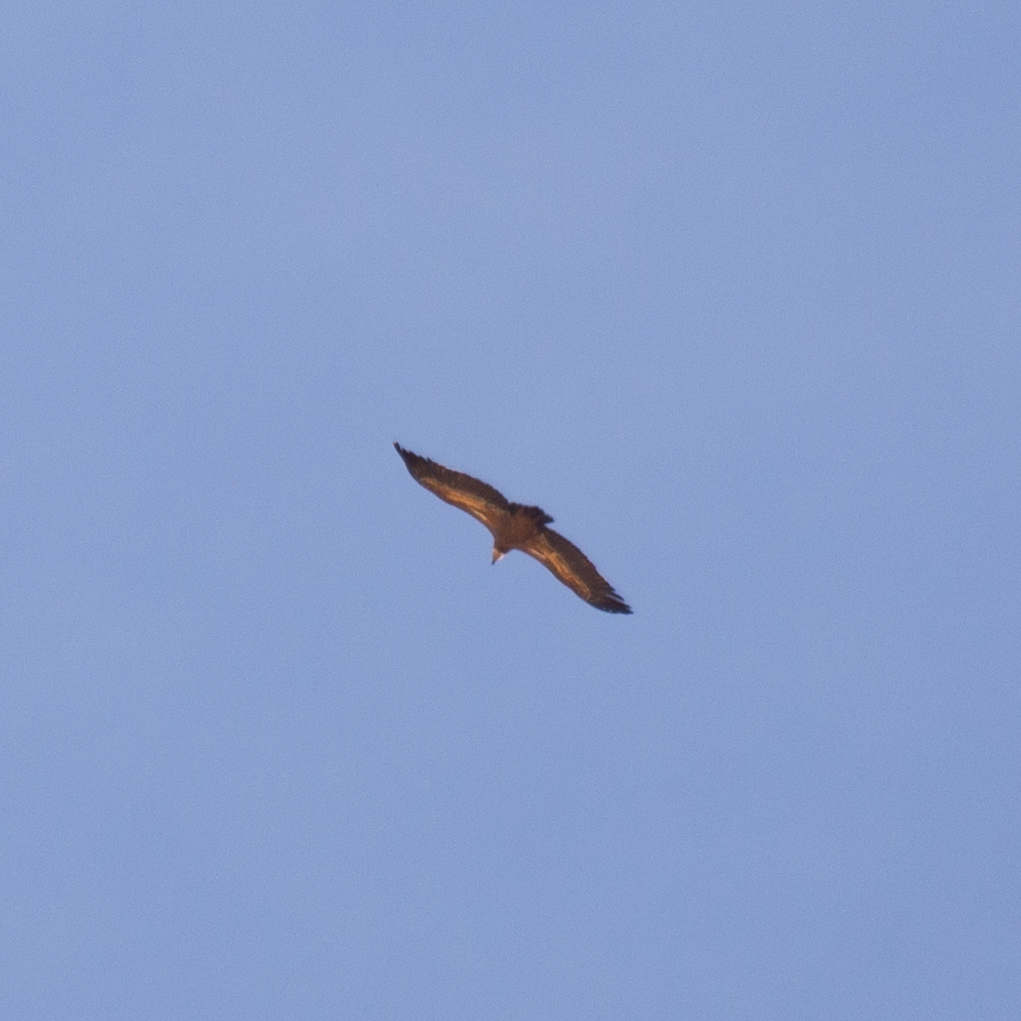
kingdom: Animalia
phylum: Chordata
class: Aves
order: Accipitriformes
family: Accipitridae
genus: Gyps
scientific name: Gyps fulvus
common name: Griffon vulture
